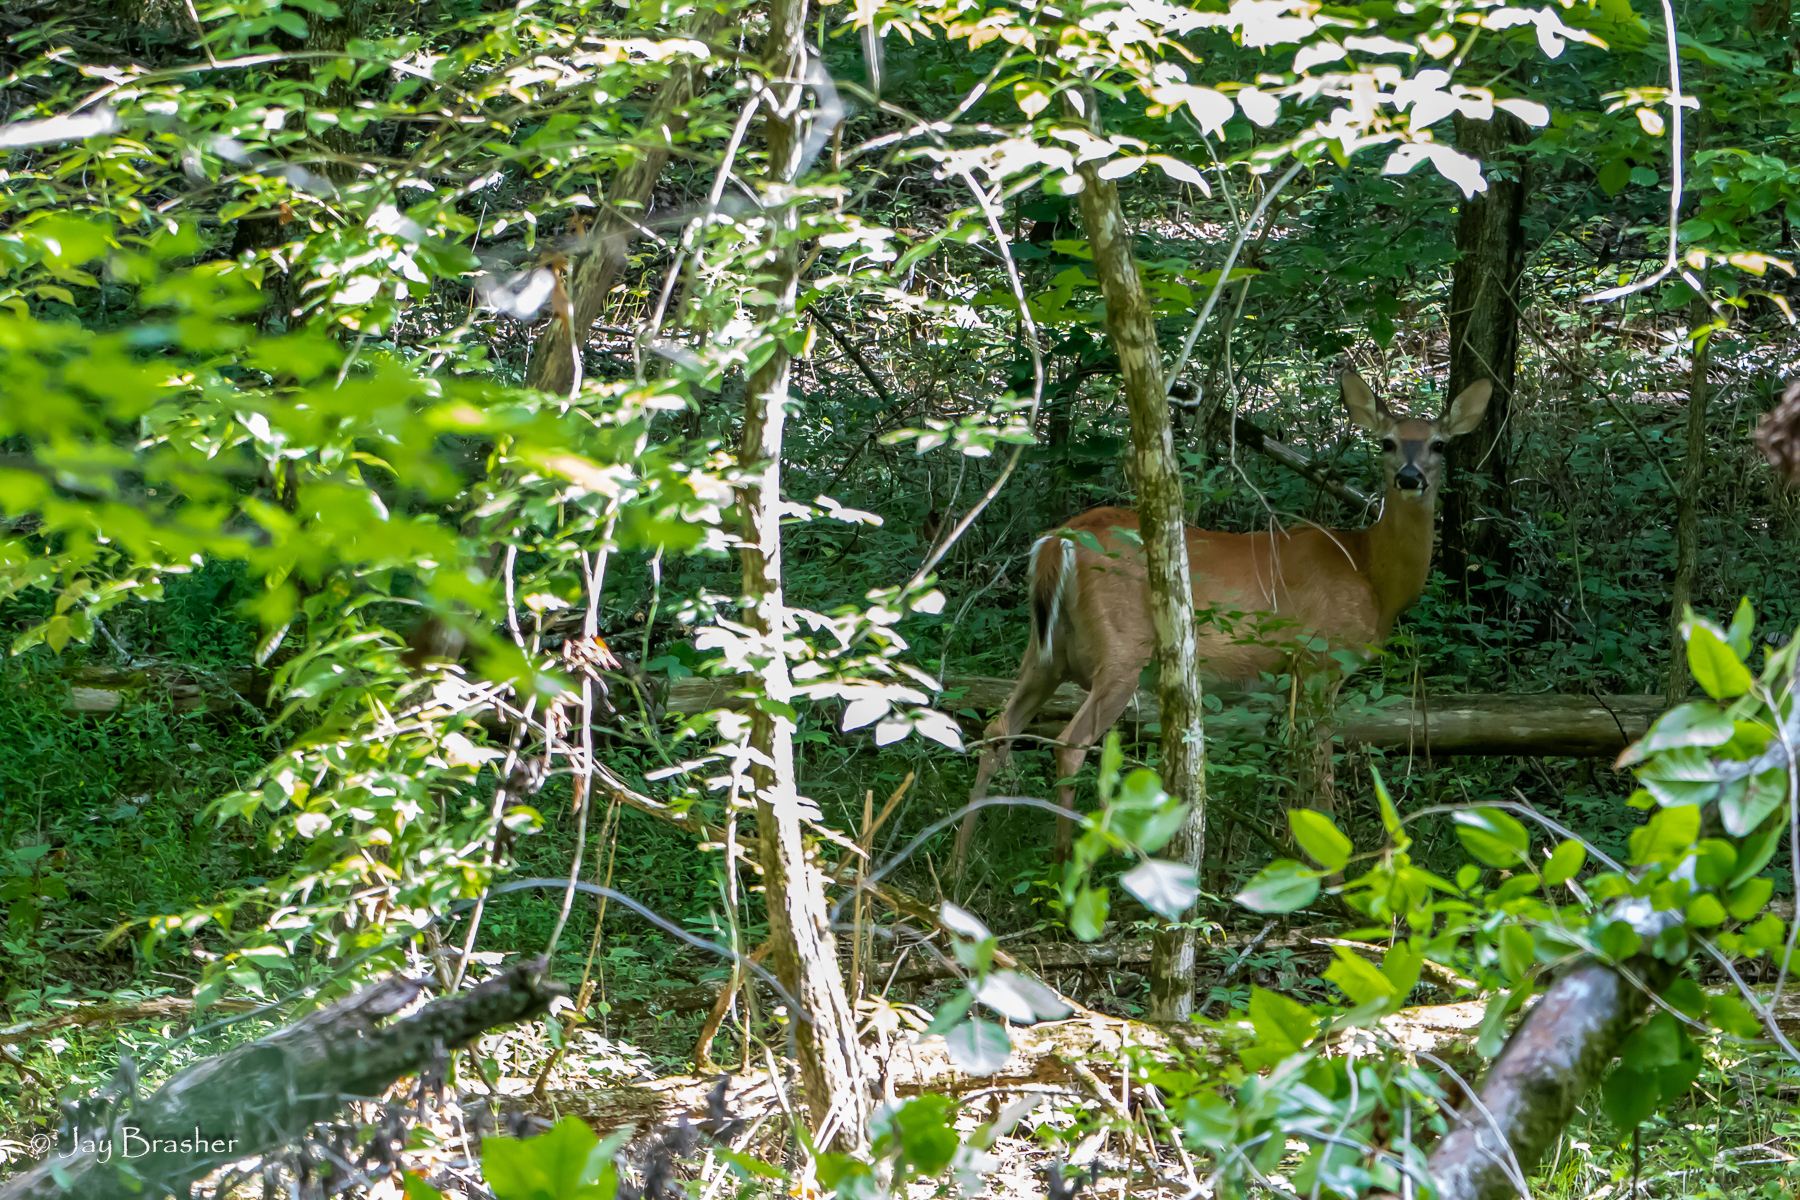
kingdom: Animalia
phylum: Chordata
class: Mammalia
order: Artiodactyla
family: Cervidae
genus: Odocoileus
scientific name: Odocoileus virginianus
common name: White-tailed deer
